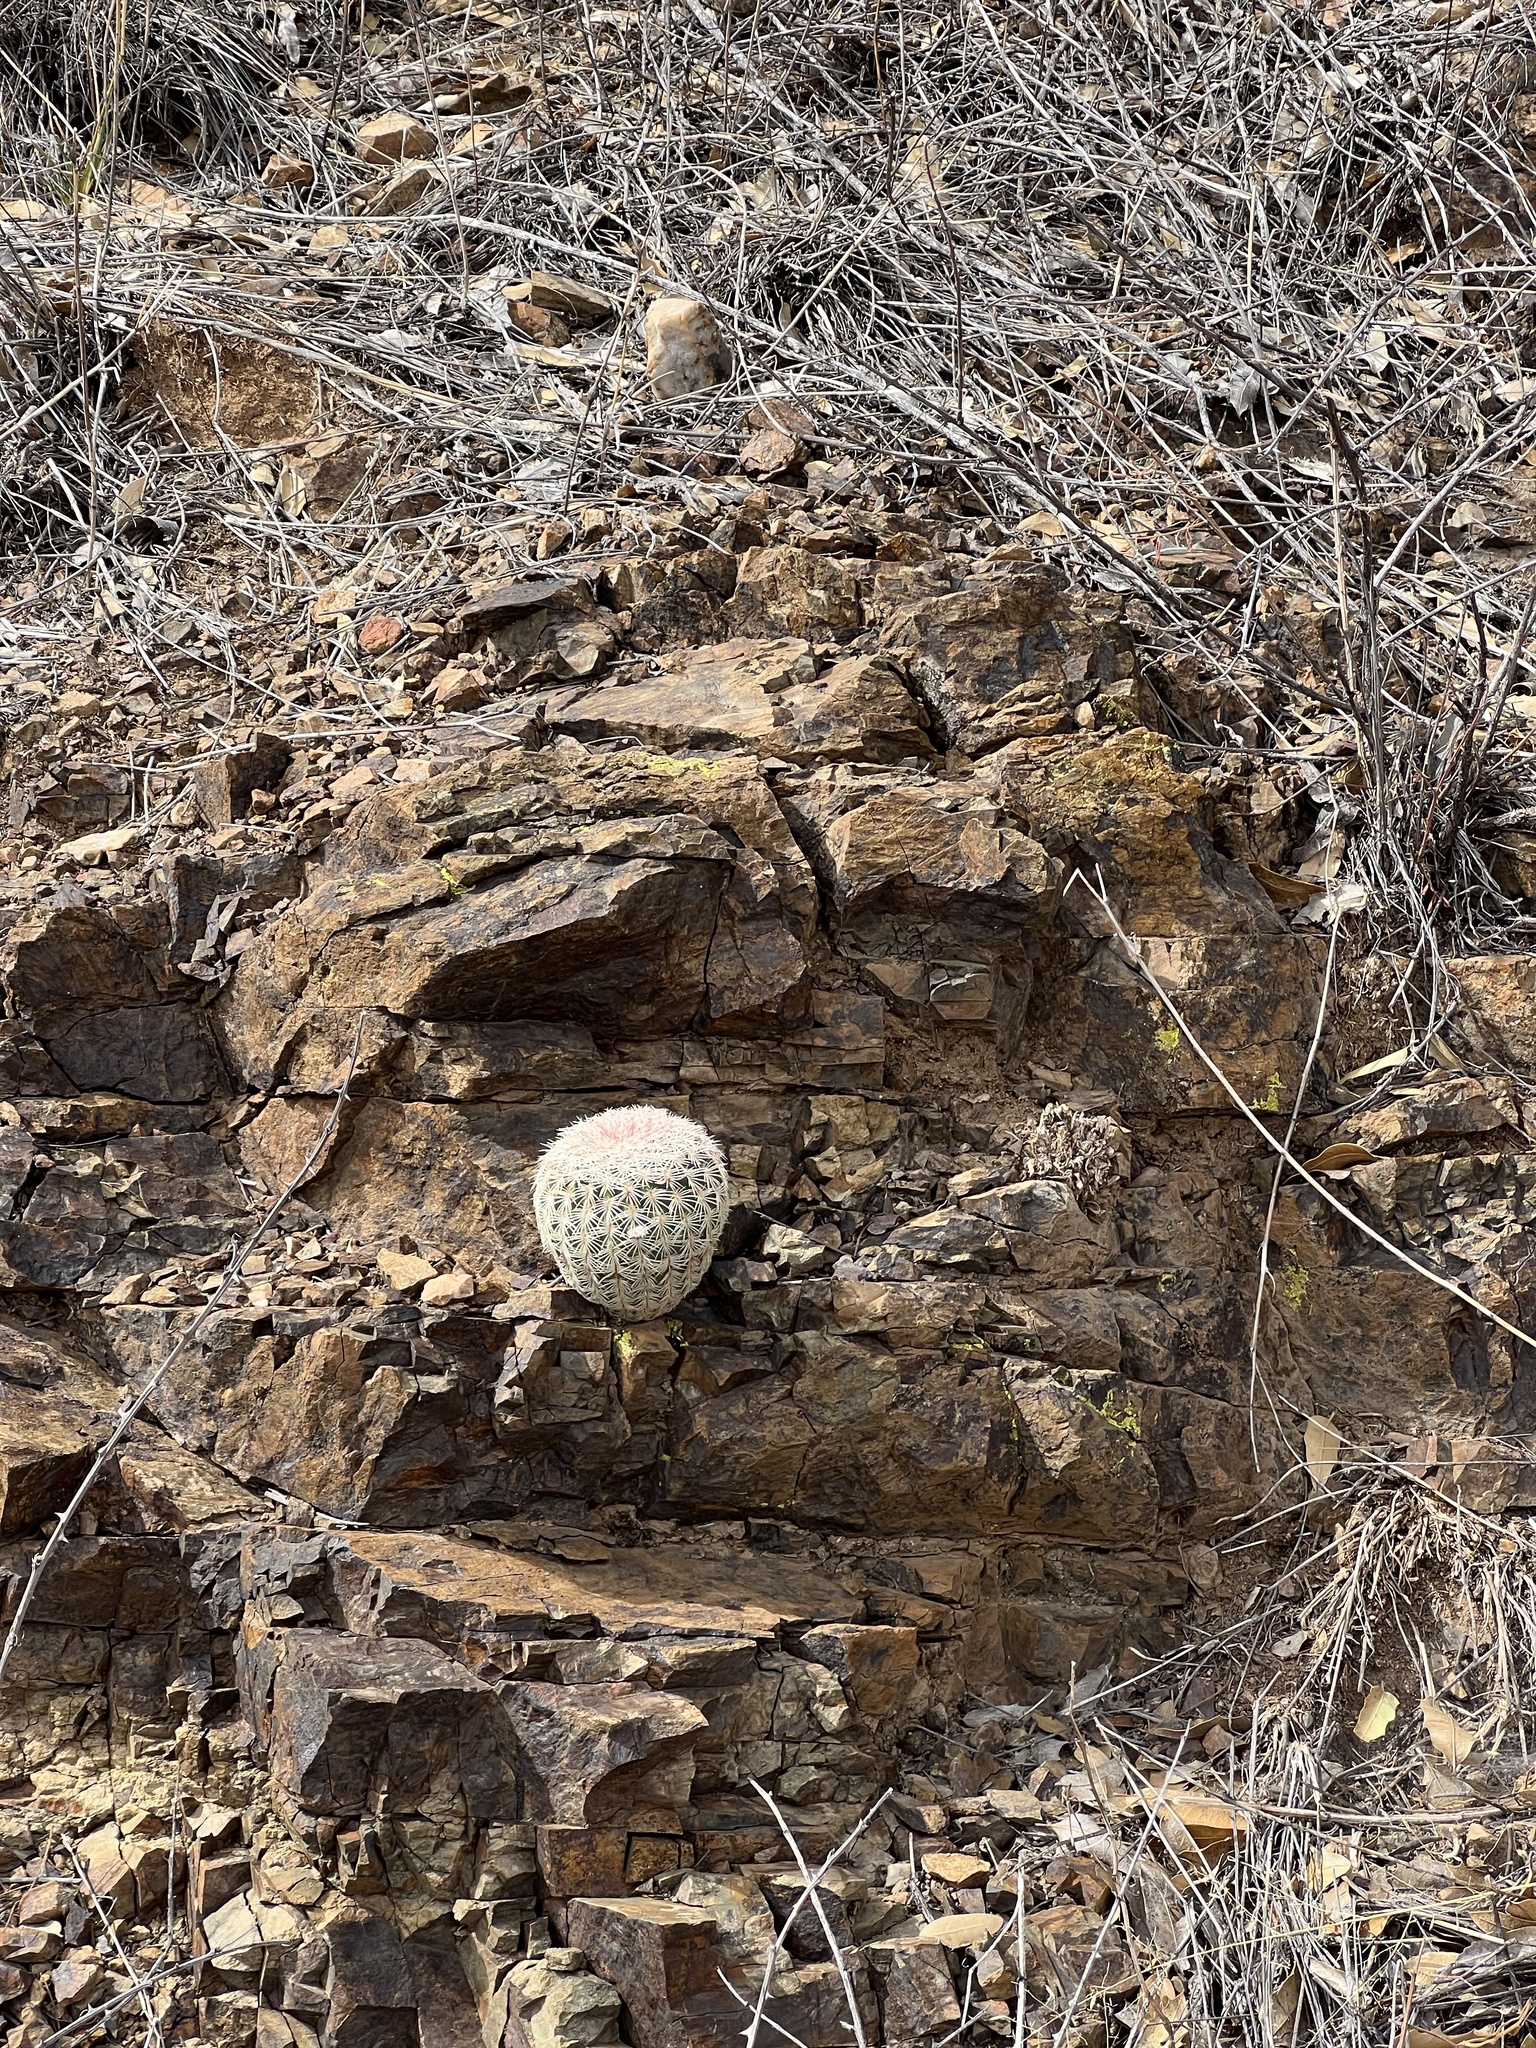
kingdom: Plantae
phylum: Tracheophyta
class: Magnoliopsida
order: Caryophyllales
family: Cactaceae
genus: Echinocereus
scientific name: Echinocereus rigidissimus
